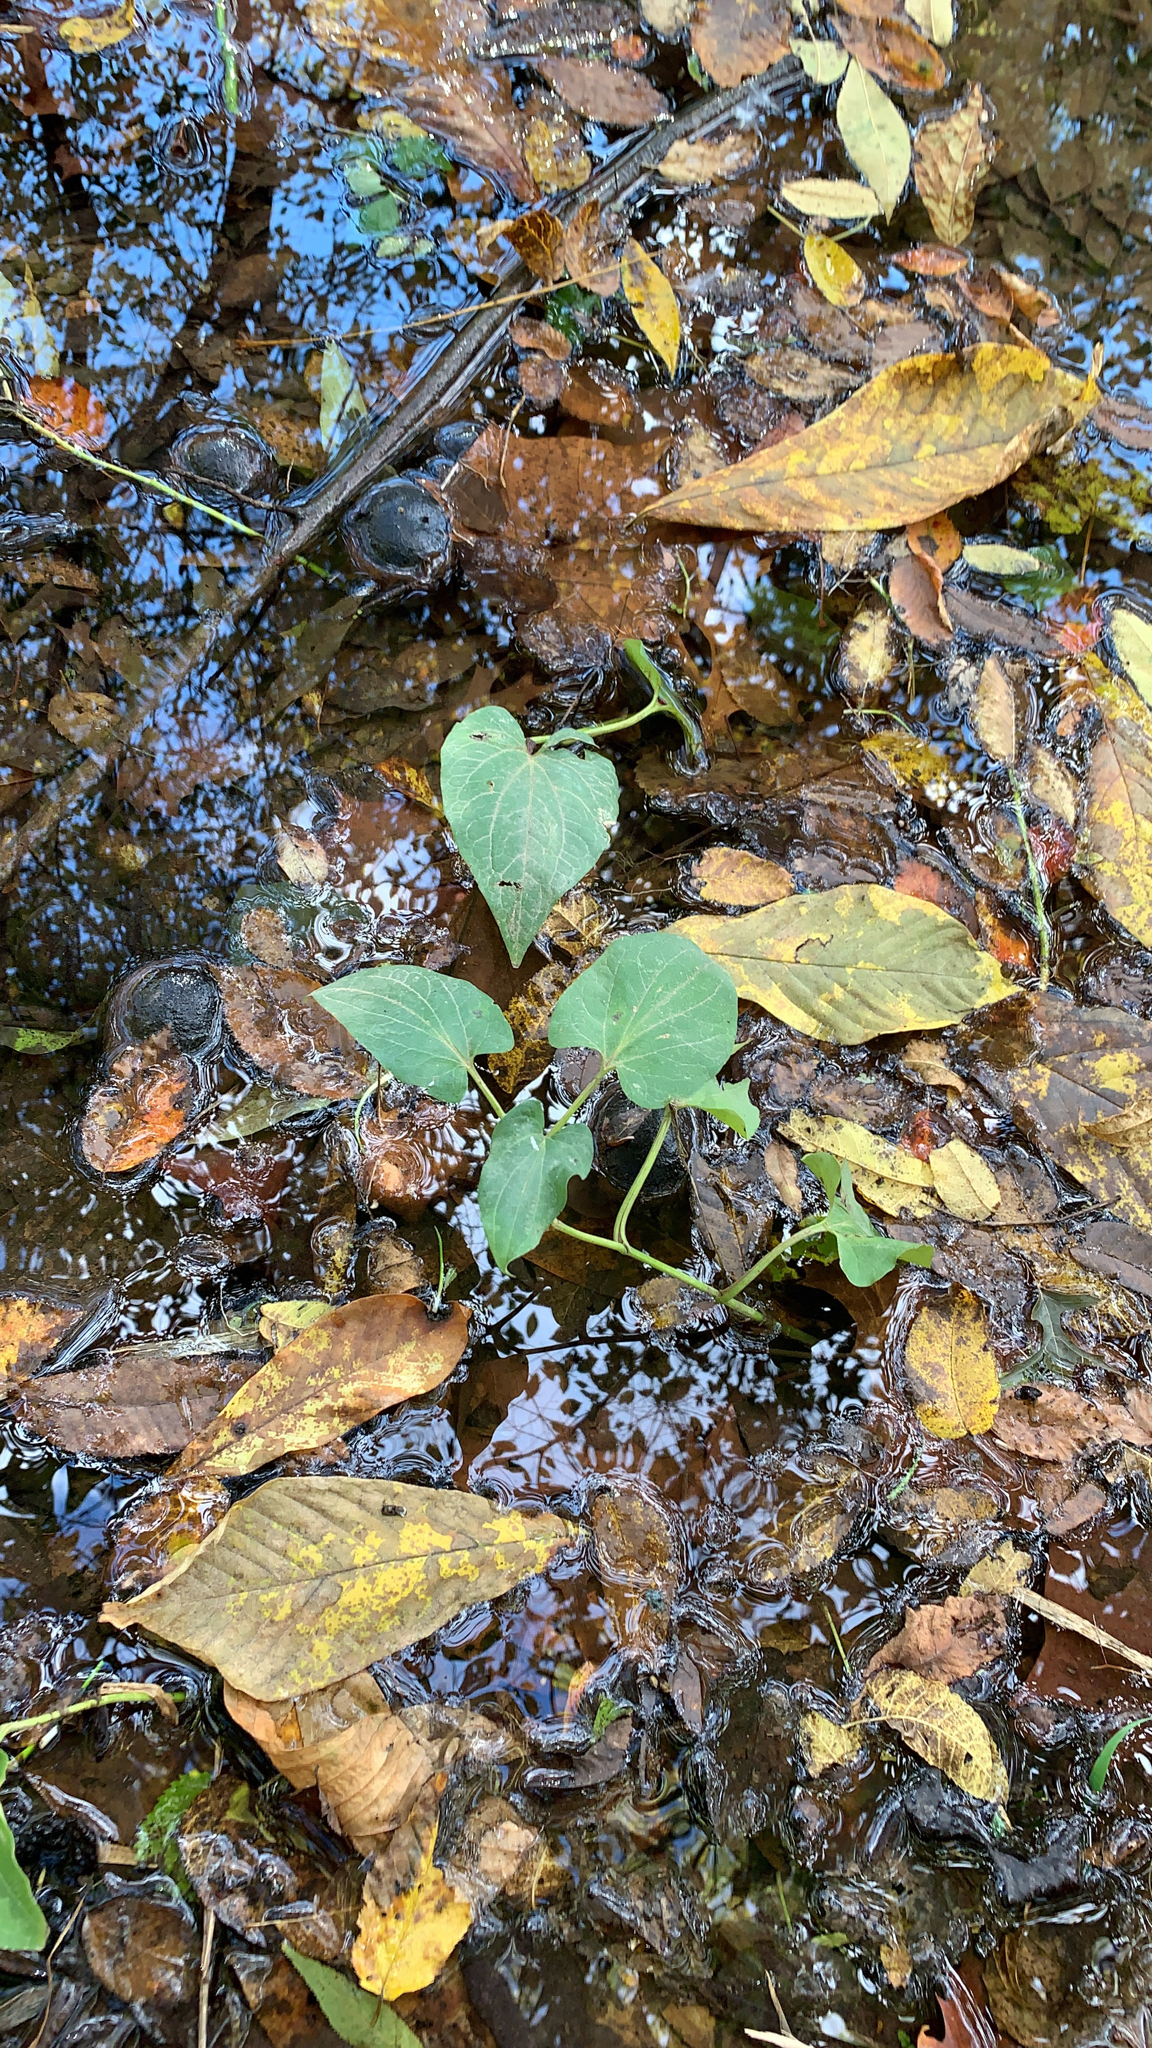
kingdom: Plantae
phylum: Tracheophyta
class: Magnoliopsida
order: Piperales
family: Saururaceae
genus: Saururus
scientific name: Saururus cernuus
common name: Lizard's-tail
